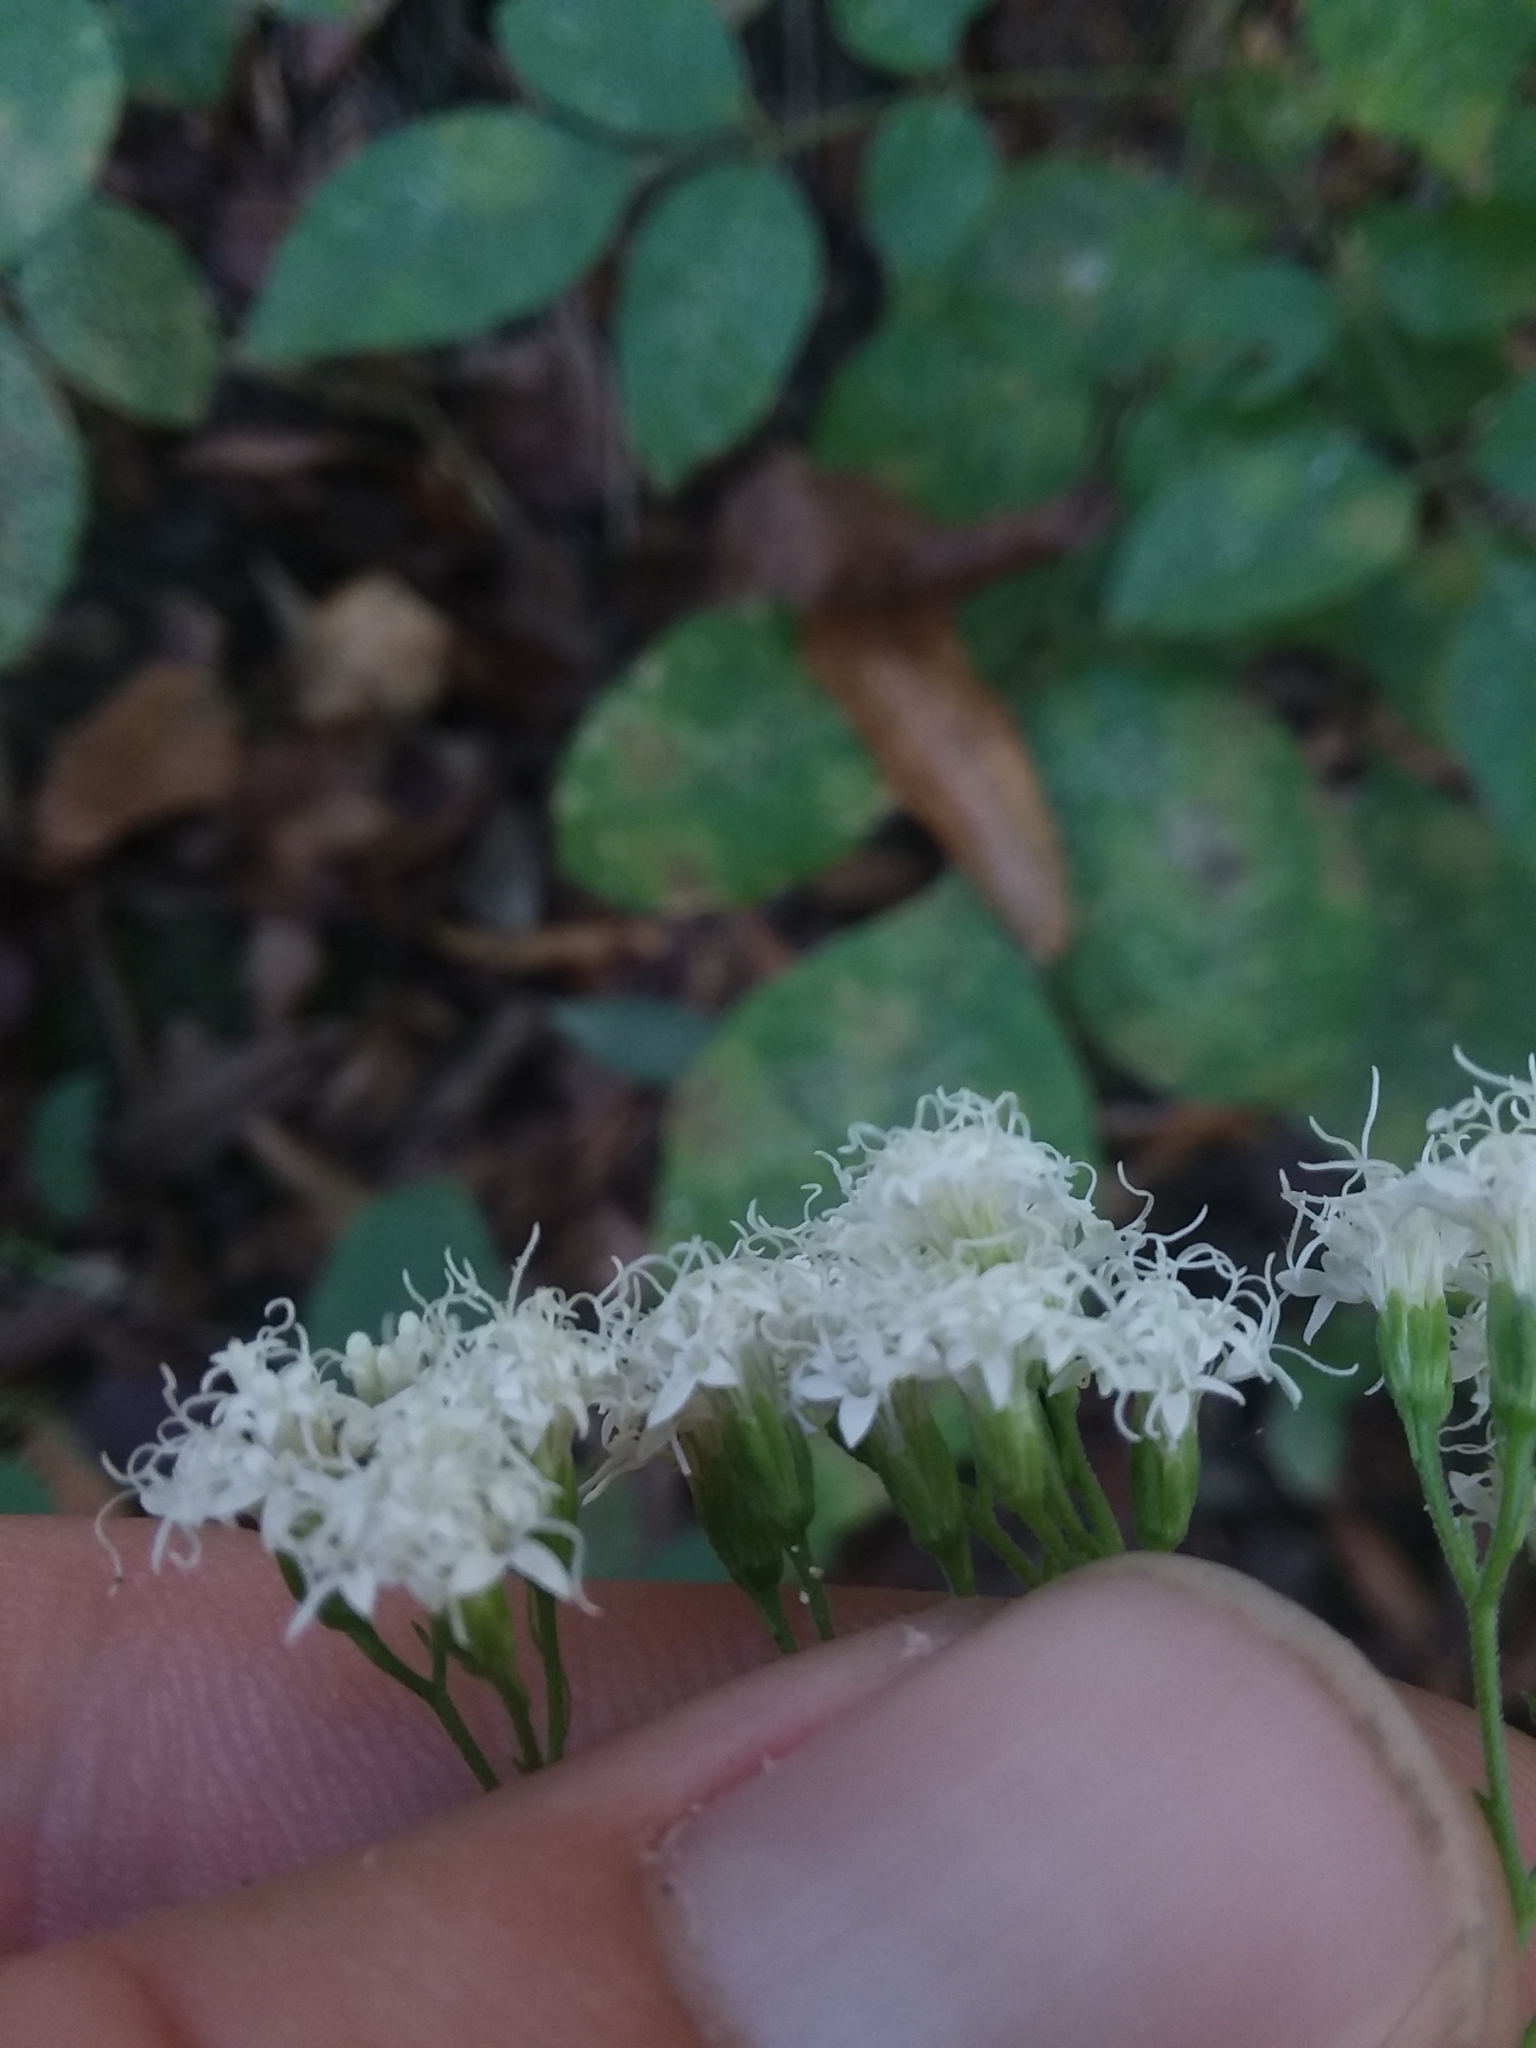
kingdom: Plantae
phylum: Tracheophyta
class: Magnoliopsida
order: Asterales
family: Asteraceae
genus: Ageratina
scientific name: Ageratina altissima
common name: White snakeroot
